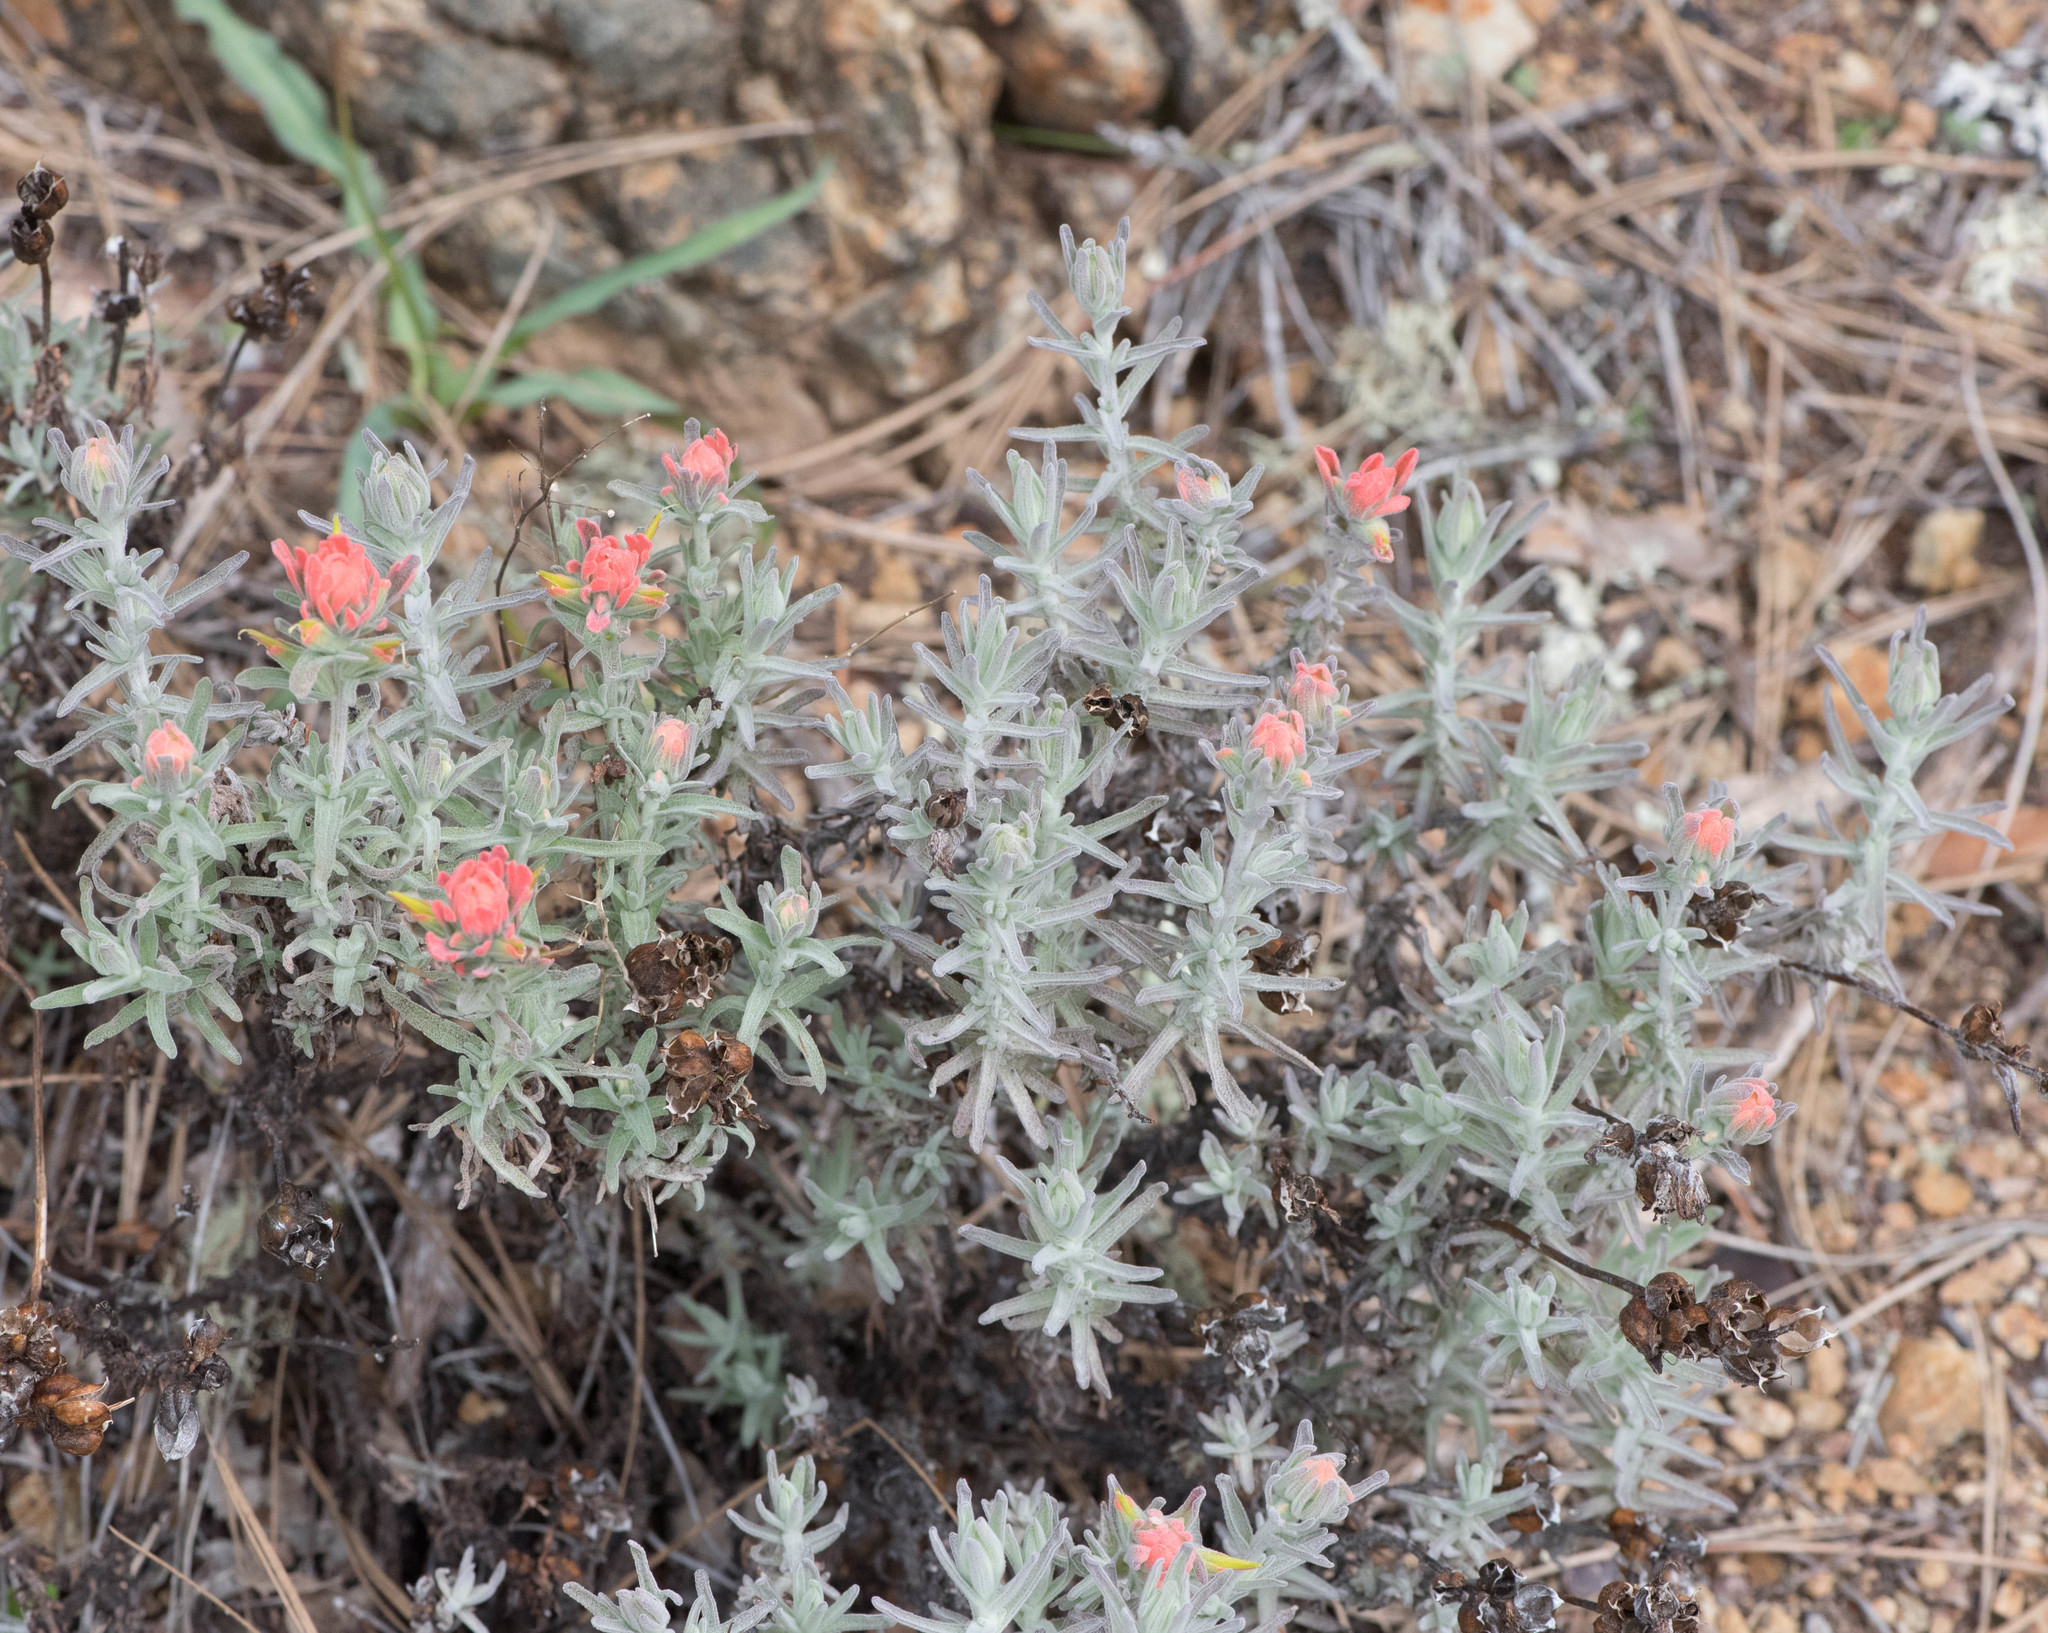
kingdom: Plantae
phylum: Tracheophyta
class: Magnoliopsida
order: Lamiales
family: Orobanchaceae
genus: Castilleja
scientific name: Castilleja foliolosa
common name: Woolly indian paintbrush
